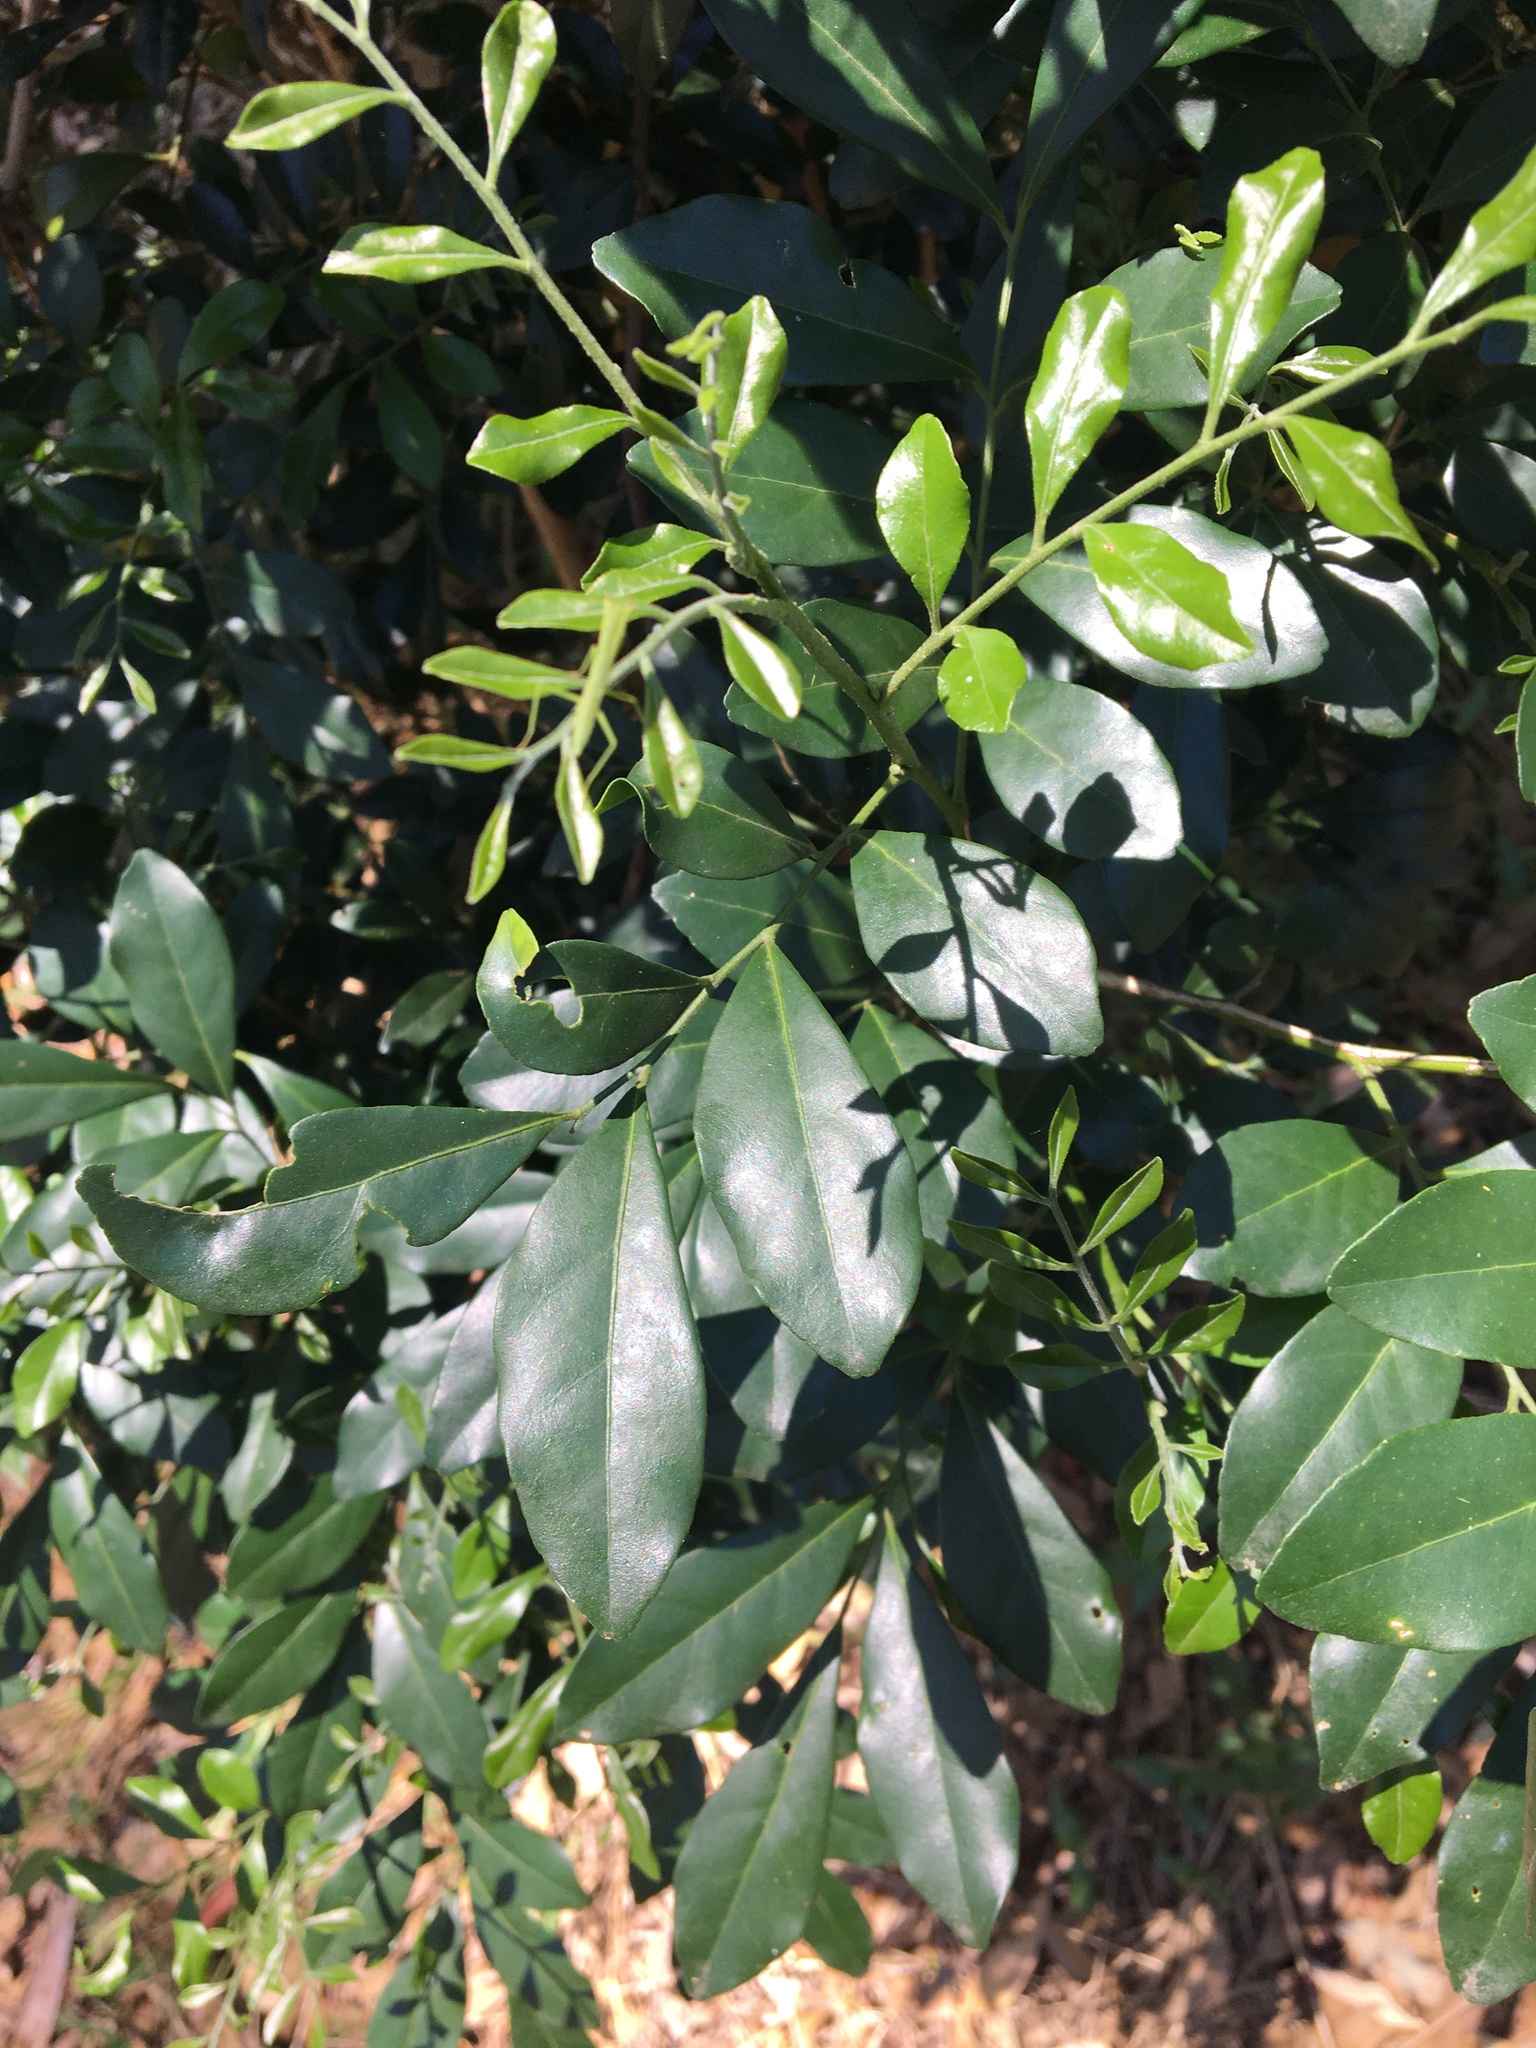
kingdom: Plantae
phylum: Tracheophyta
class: Magnoliopsida
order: Sapindales
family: Rutaceae
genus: Murraya
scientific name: Murraya paniculata
